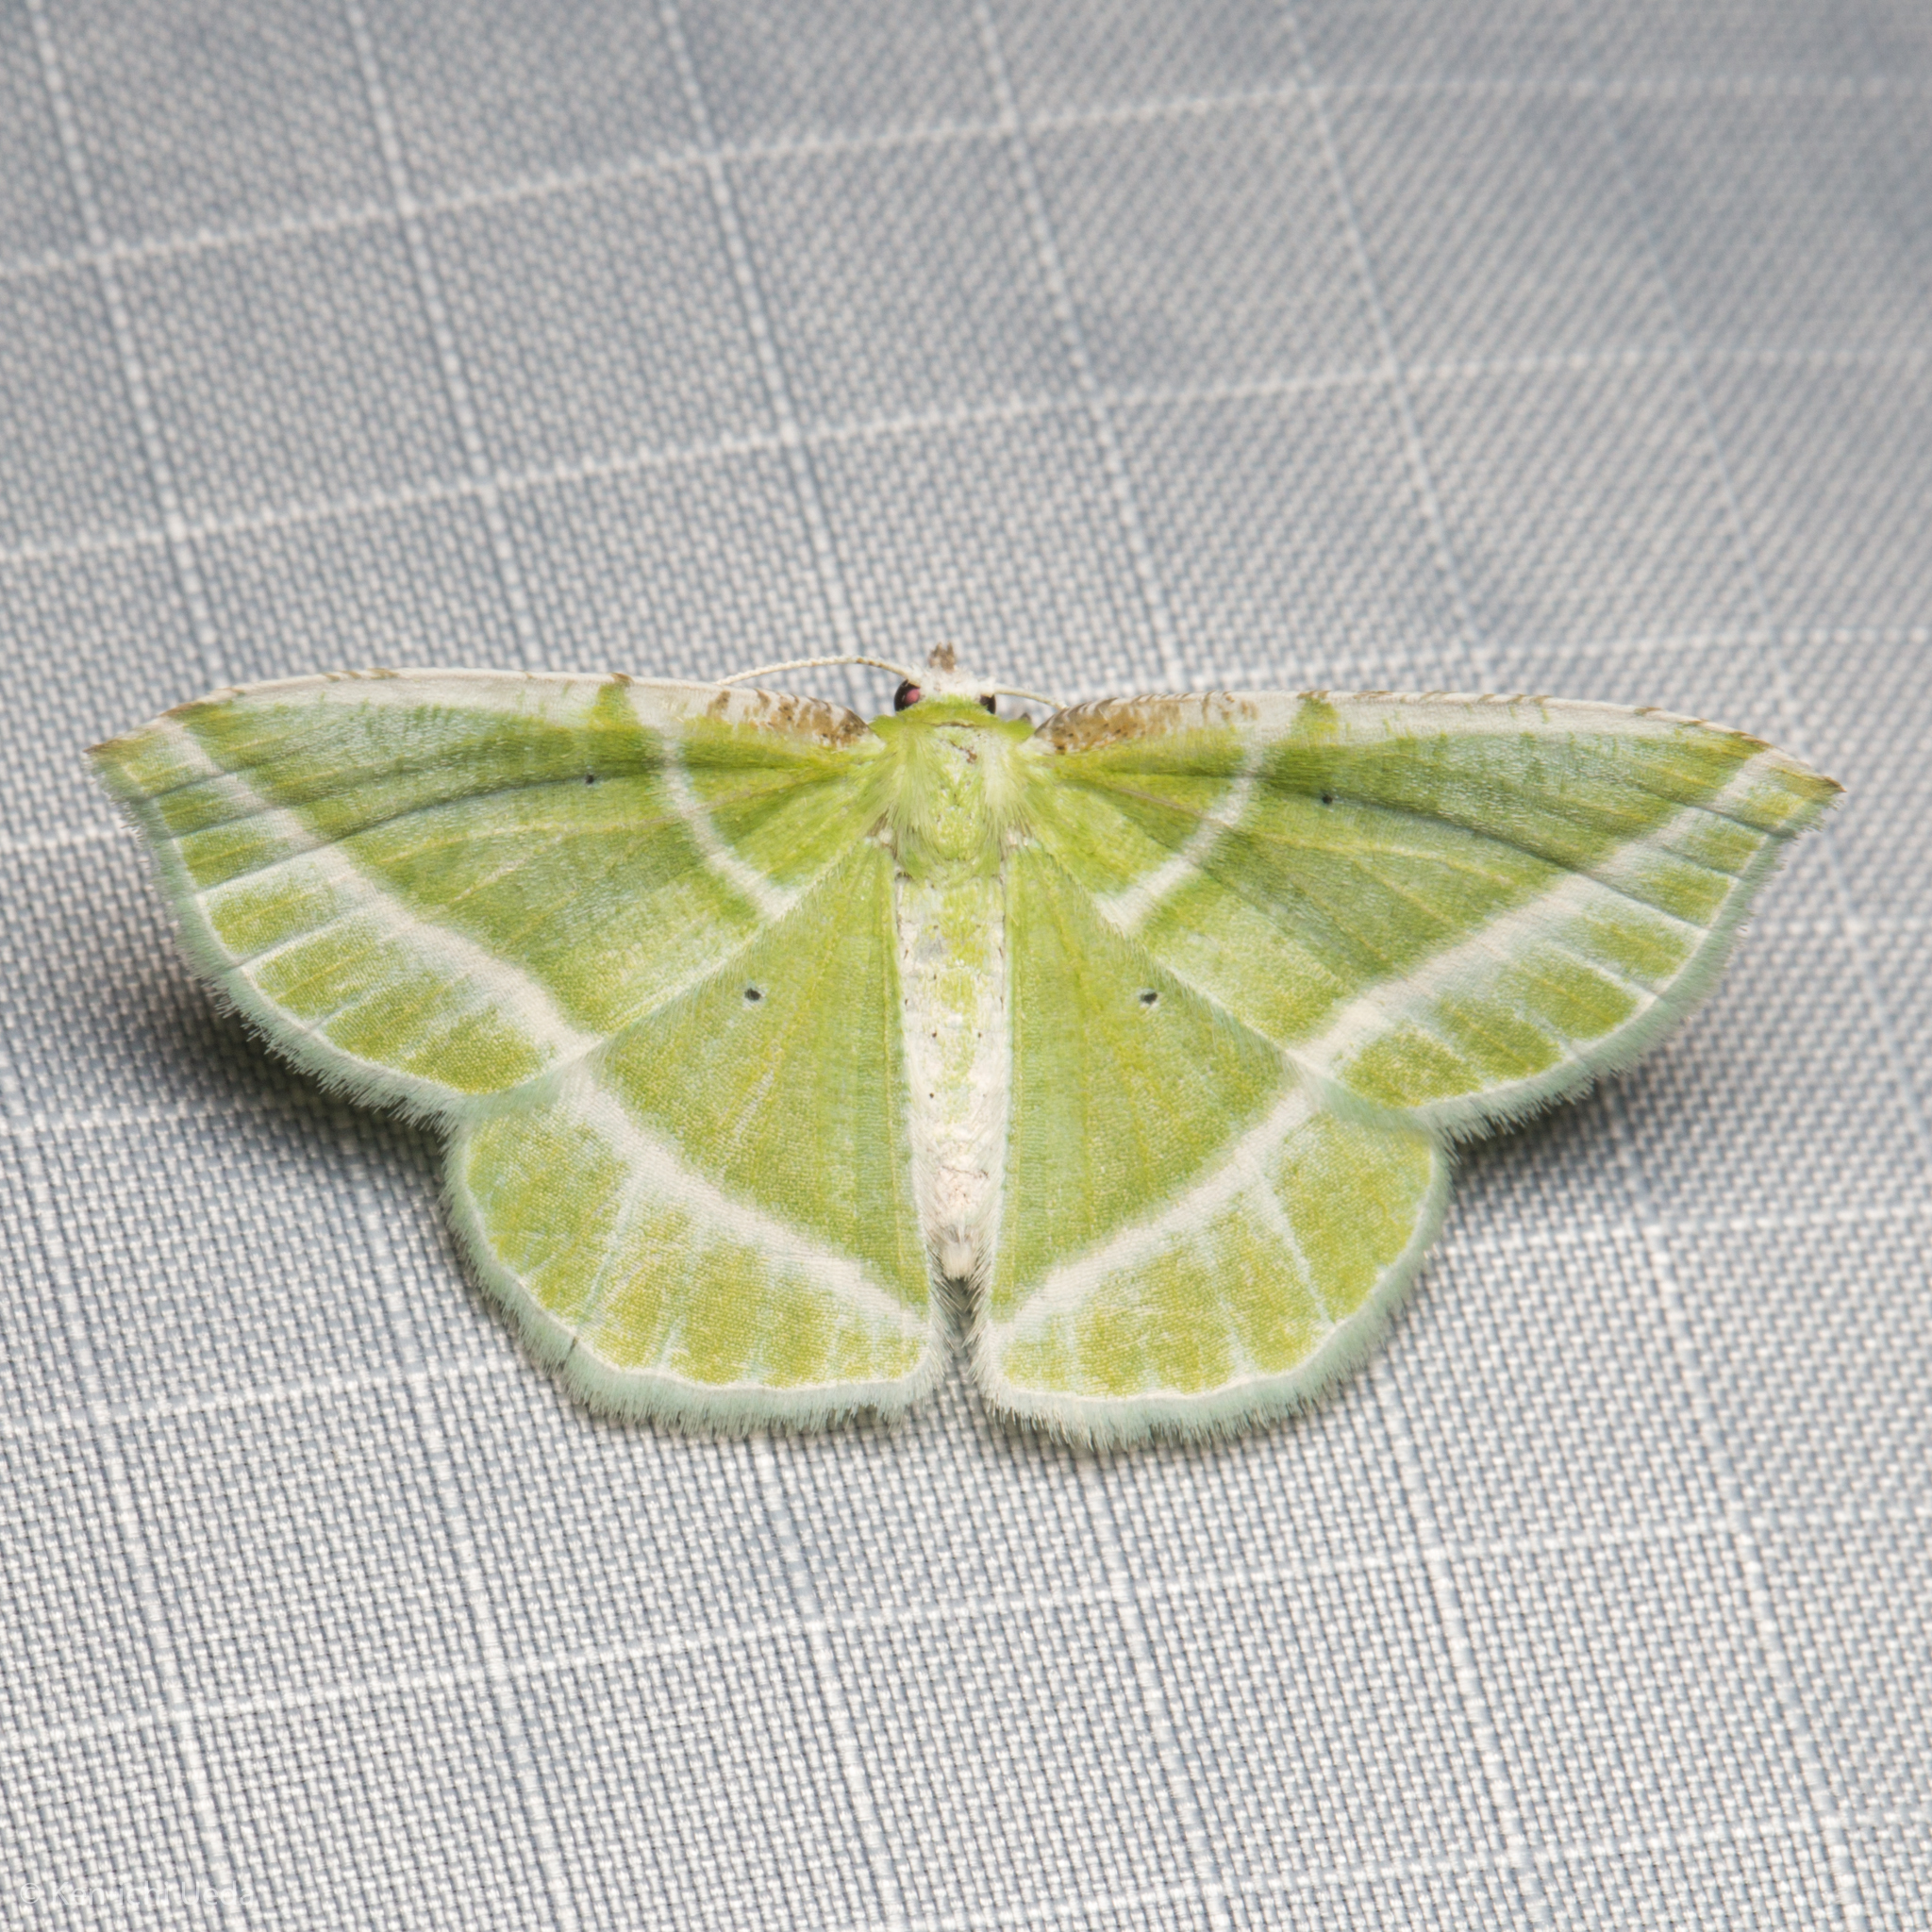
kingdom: Animalia
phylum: Arthropoda
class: Insecta
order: Lepidoptera
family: Geometridae
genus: Dichorda
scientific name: Dichorda iridaria
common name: Showy emerald
